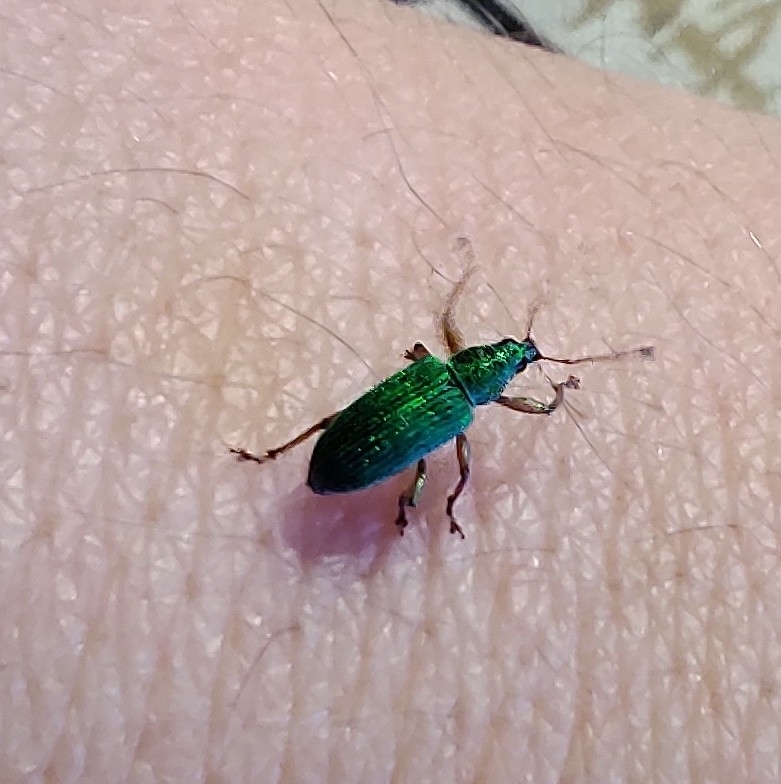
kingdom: Animalia
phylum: Arthropoda
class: Insecta
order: Coleoptera
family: Curculionidae
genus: Polydrusus
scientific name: Polydrusus formosus
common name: Weevil
